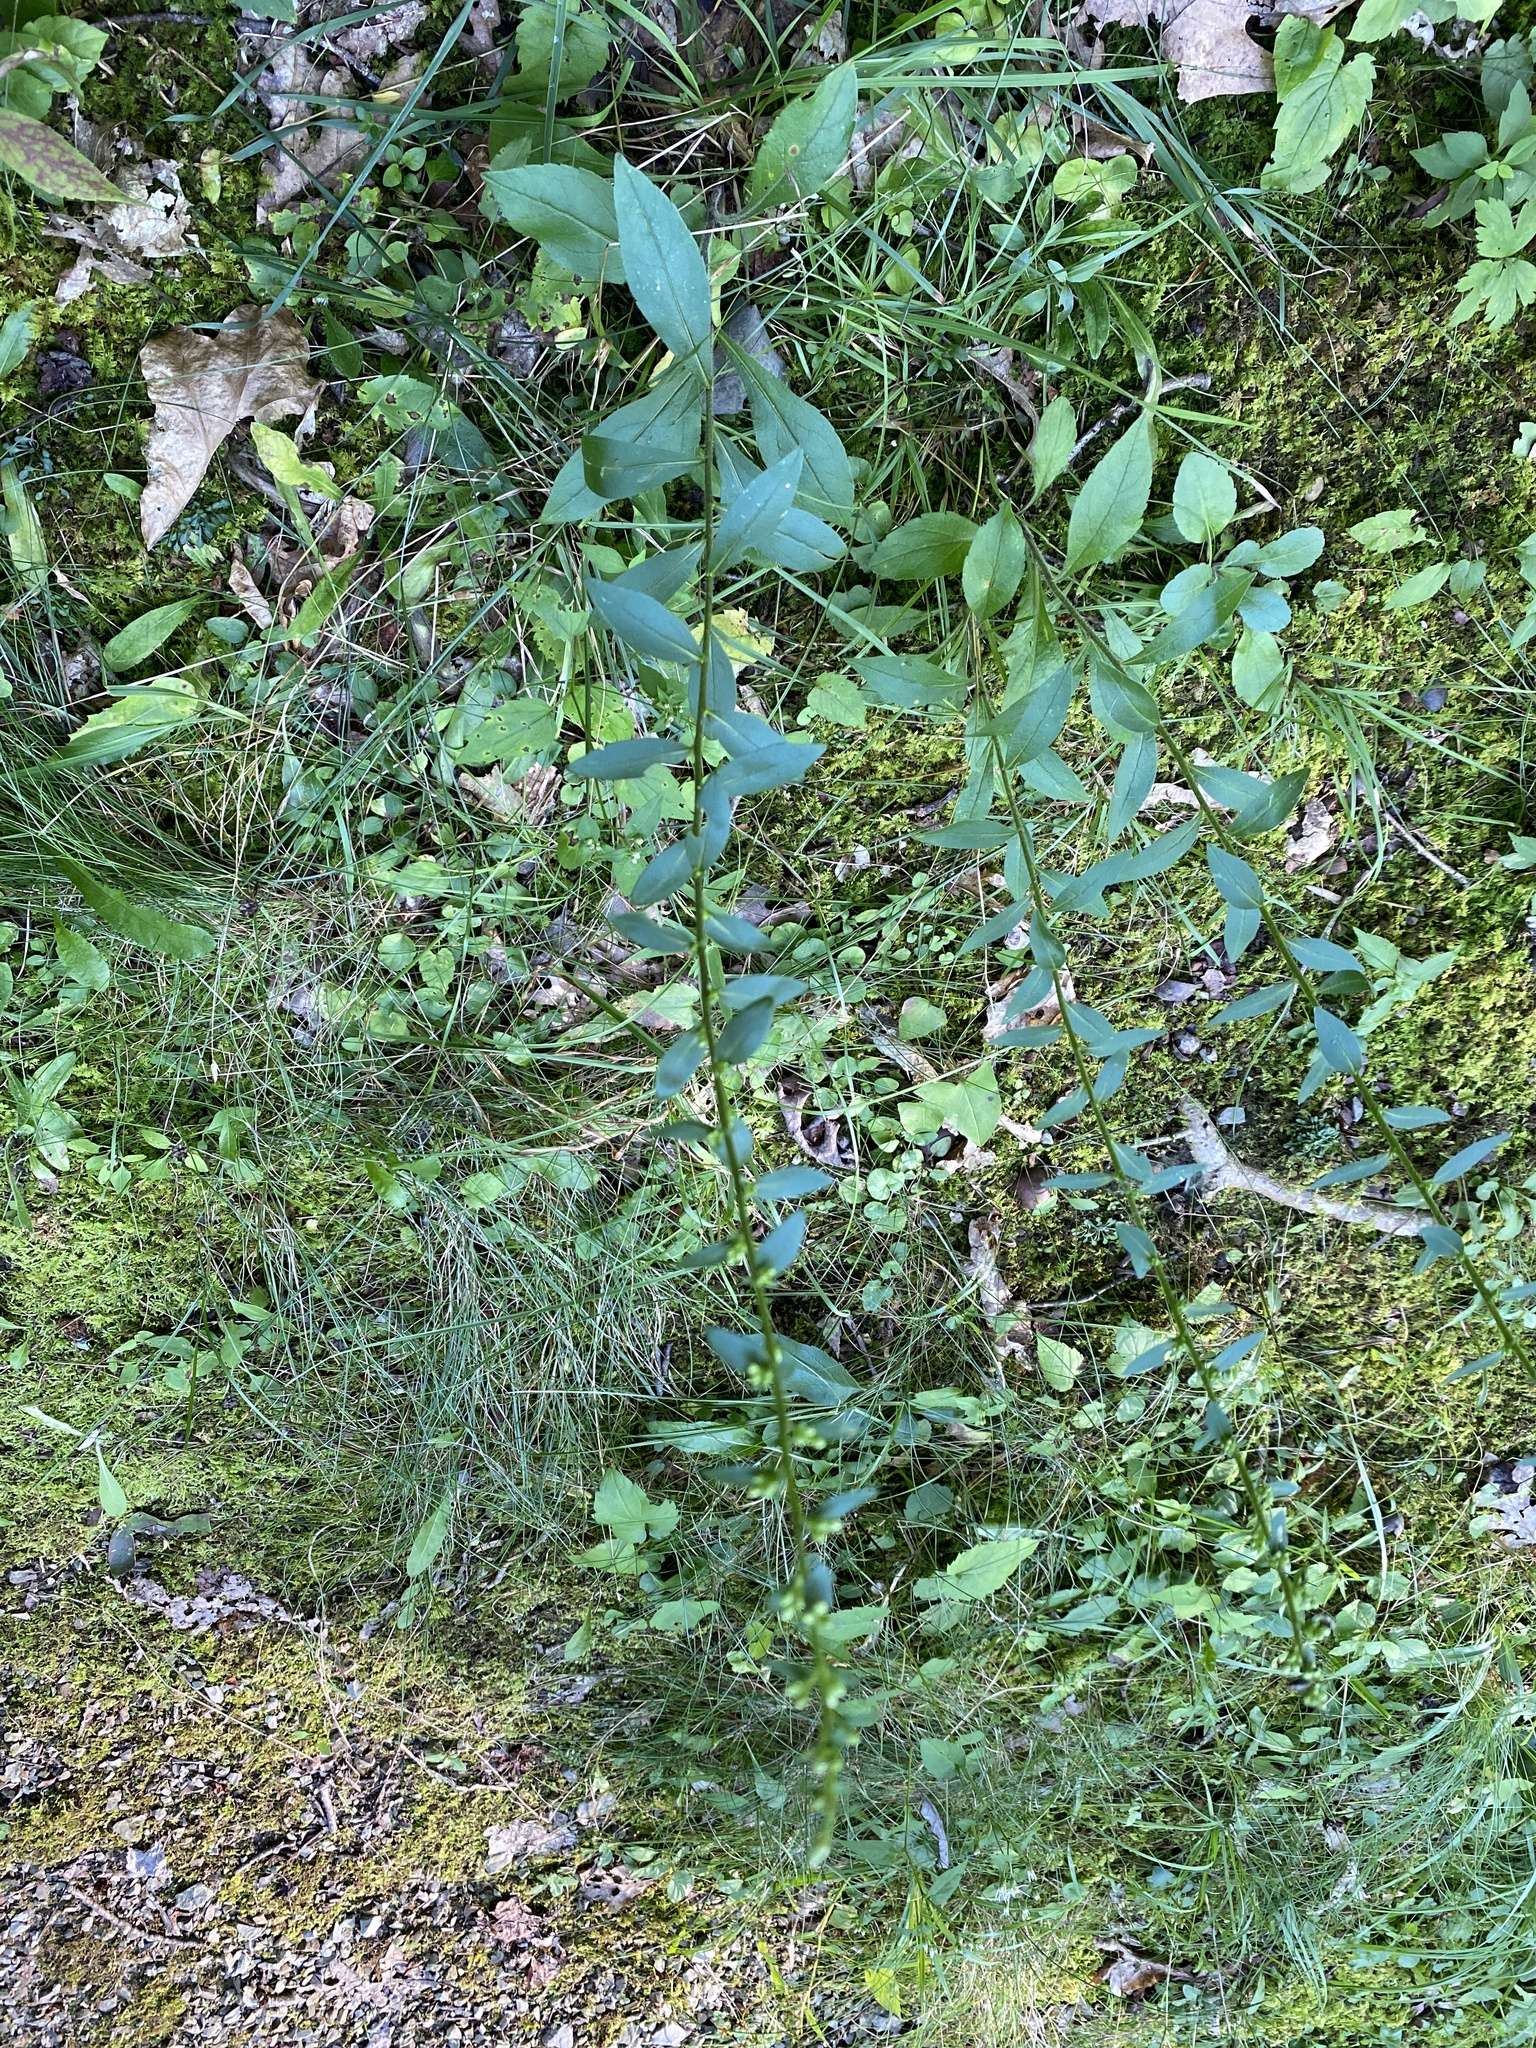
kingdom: Plantae
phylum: Tracheophyta
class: Magnoliopsida
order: Asterales
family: Asteraceae
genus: Solidago
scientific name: Solidago bicolor
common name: Silverrod
